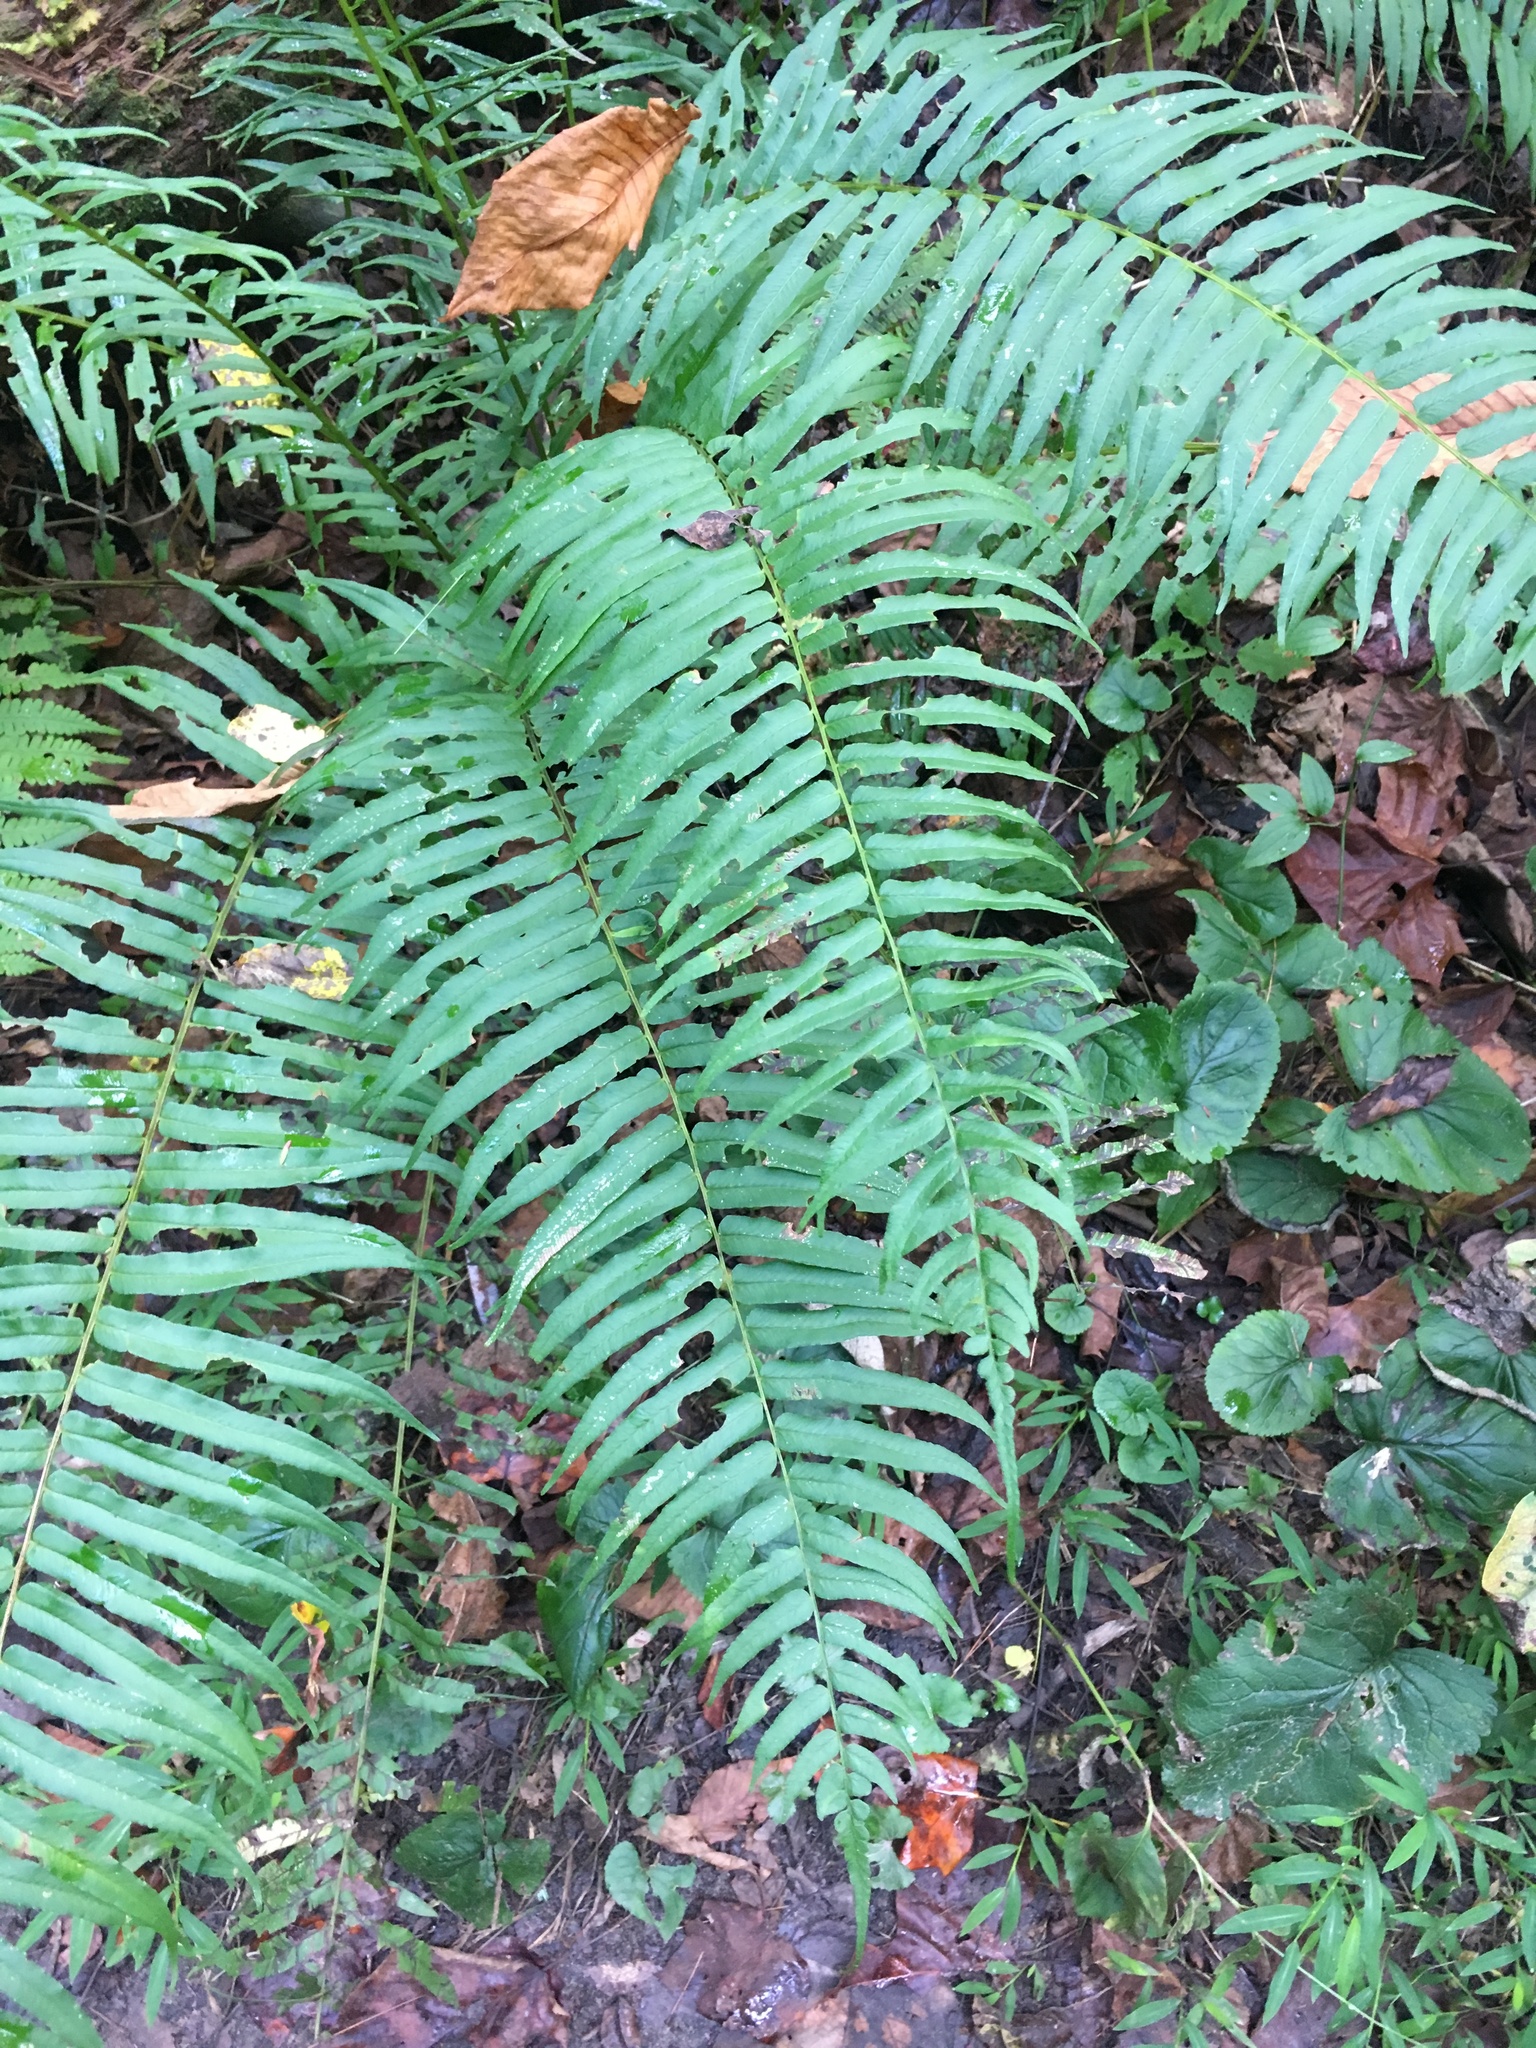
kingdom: Plantae
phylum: Tracheophyta
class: Polypodiopsida
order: Polypodiales
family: Diplaziopsidaceae
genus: Homalosorus
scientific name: Homalosorus pycnocarpos
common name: Glade fern
